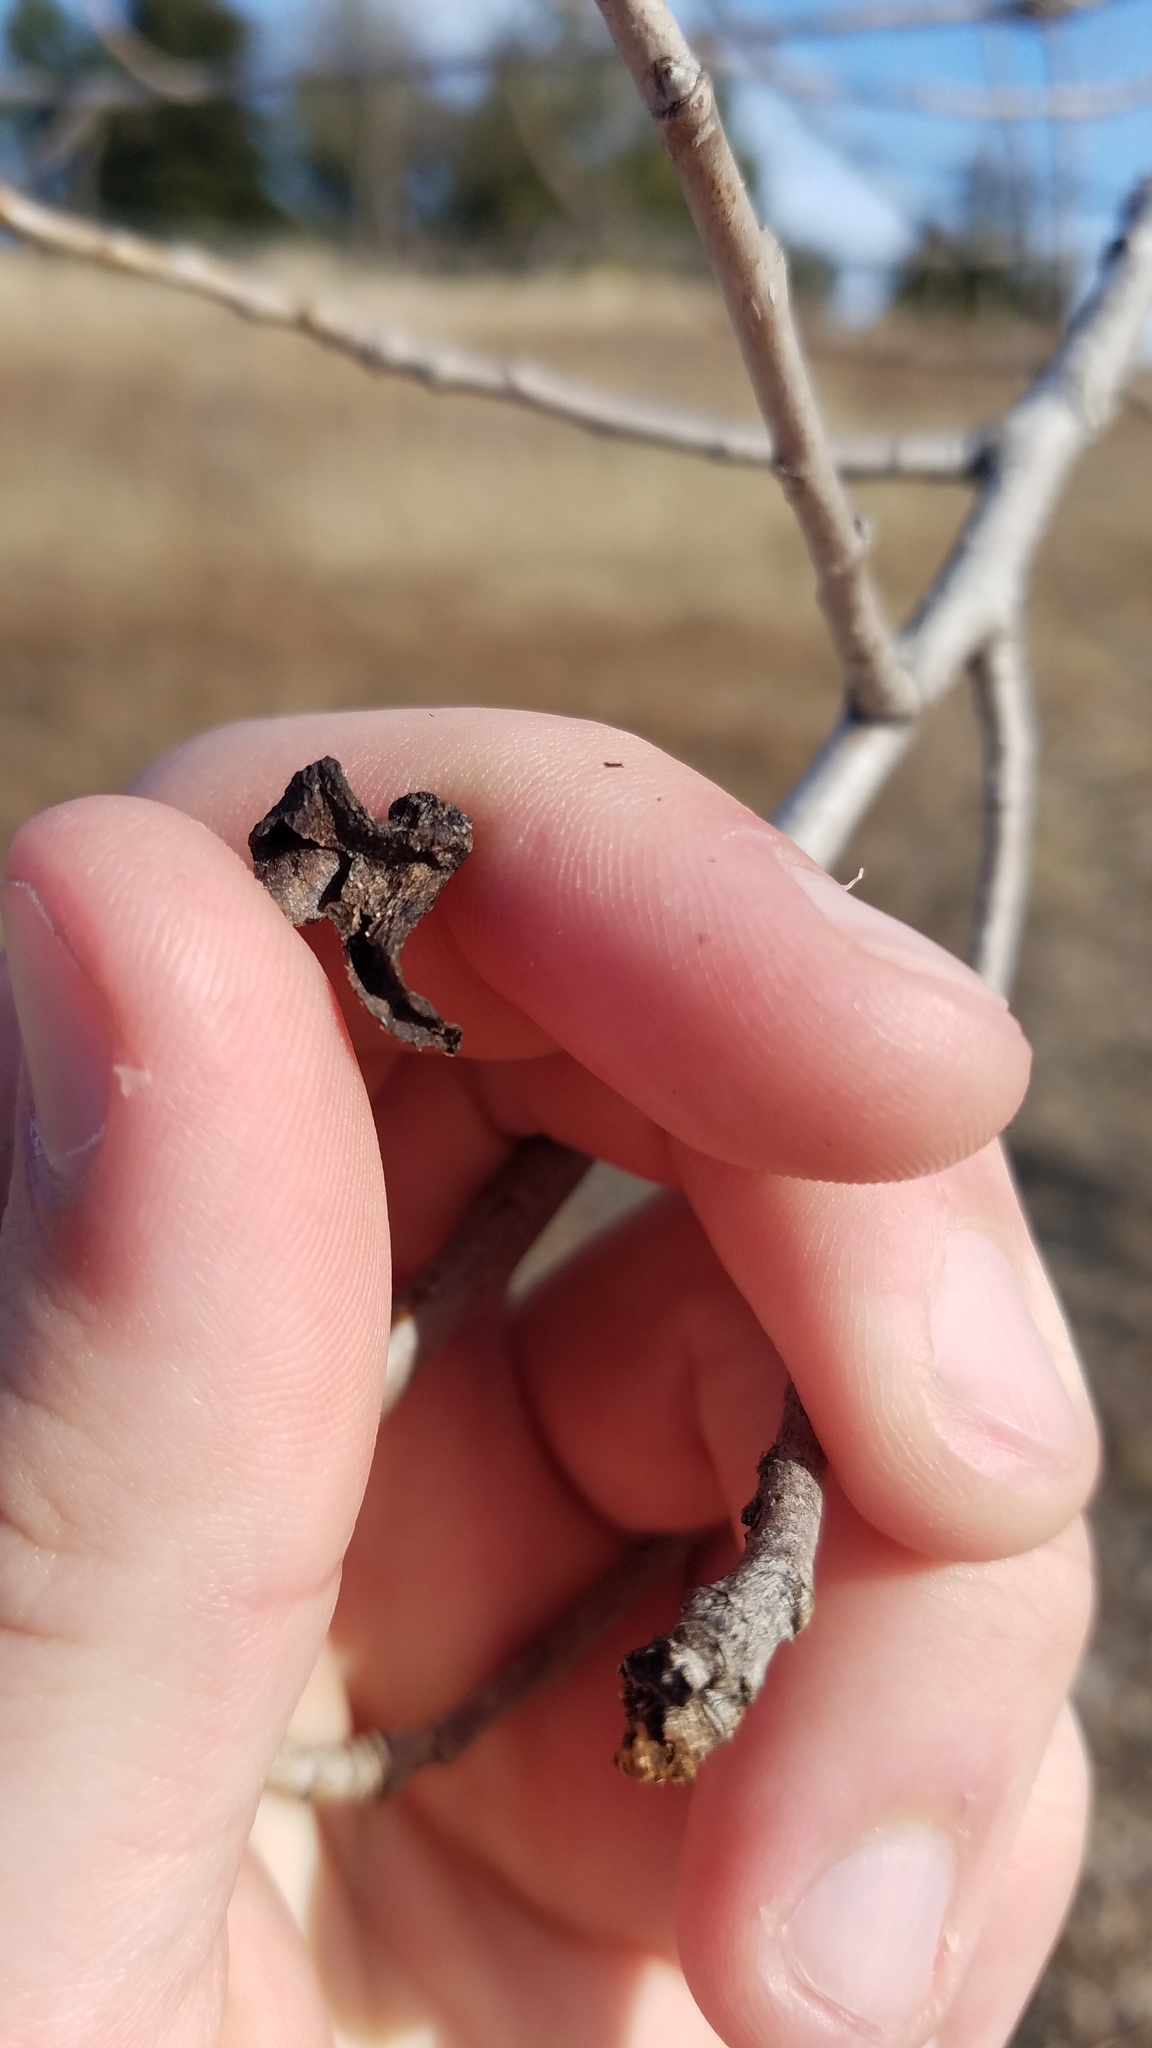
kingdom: Animalia
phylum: Arthropoda
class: Insecta
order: Hemiptera
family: Aphididae
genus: Mordwilkoja
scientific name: Mordwilkoja vagabunda
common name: Poplar vagabond aphid
